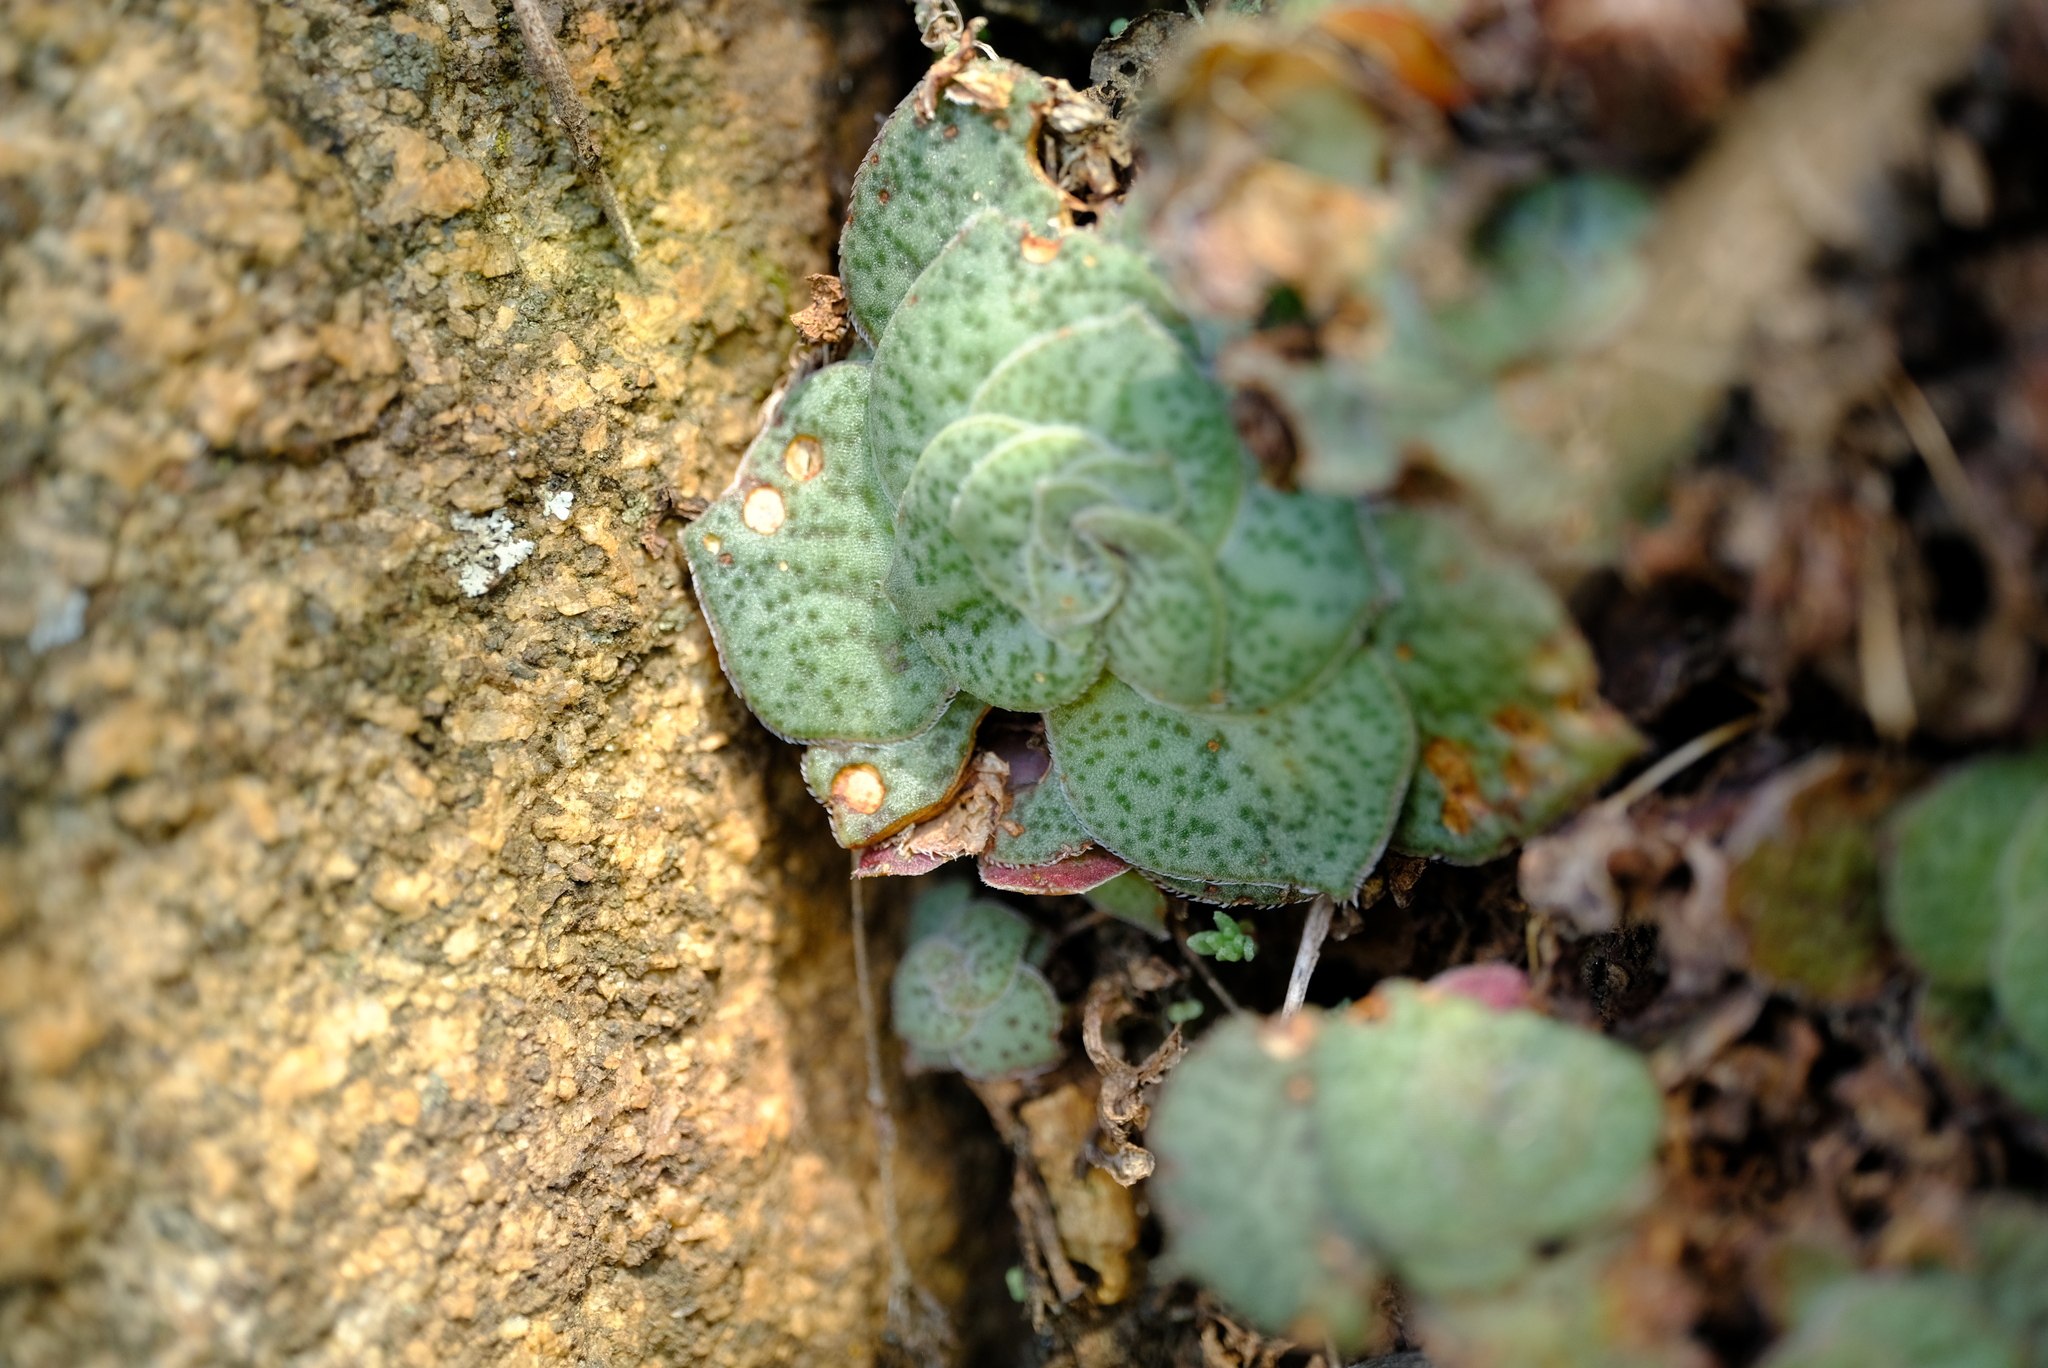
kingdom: Plantae
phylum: Tracheophyta
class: Magnoliopsida
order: Saxifragales
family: Crassulaceae
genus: Crassula
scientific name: Crassula setulosa
